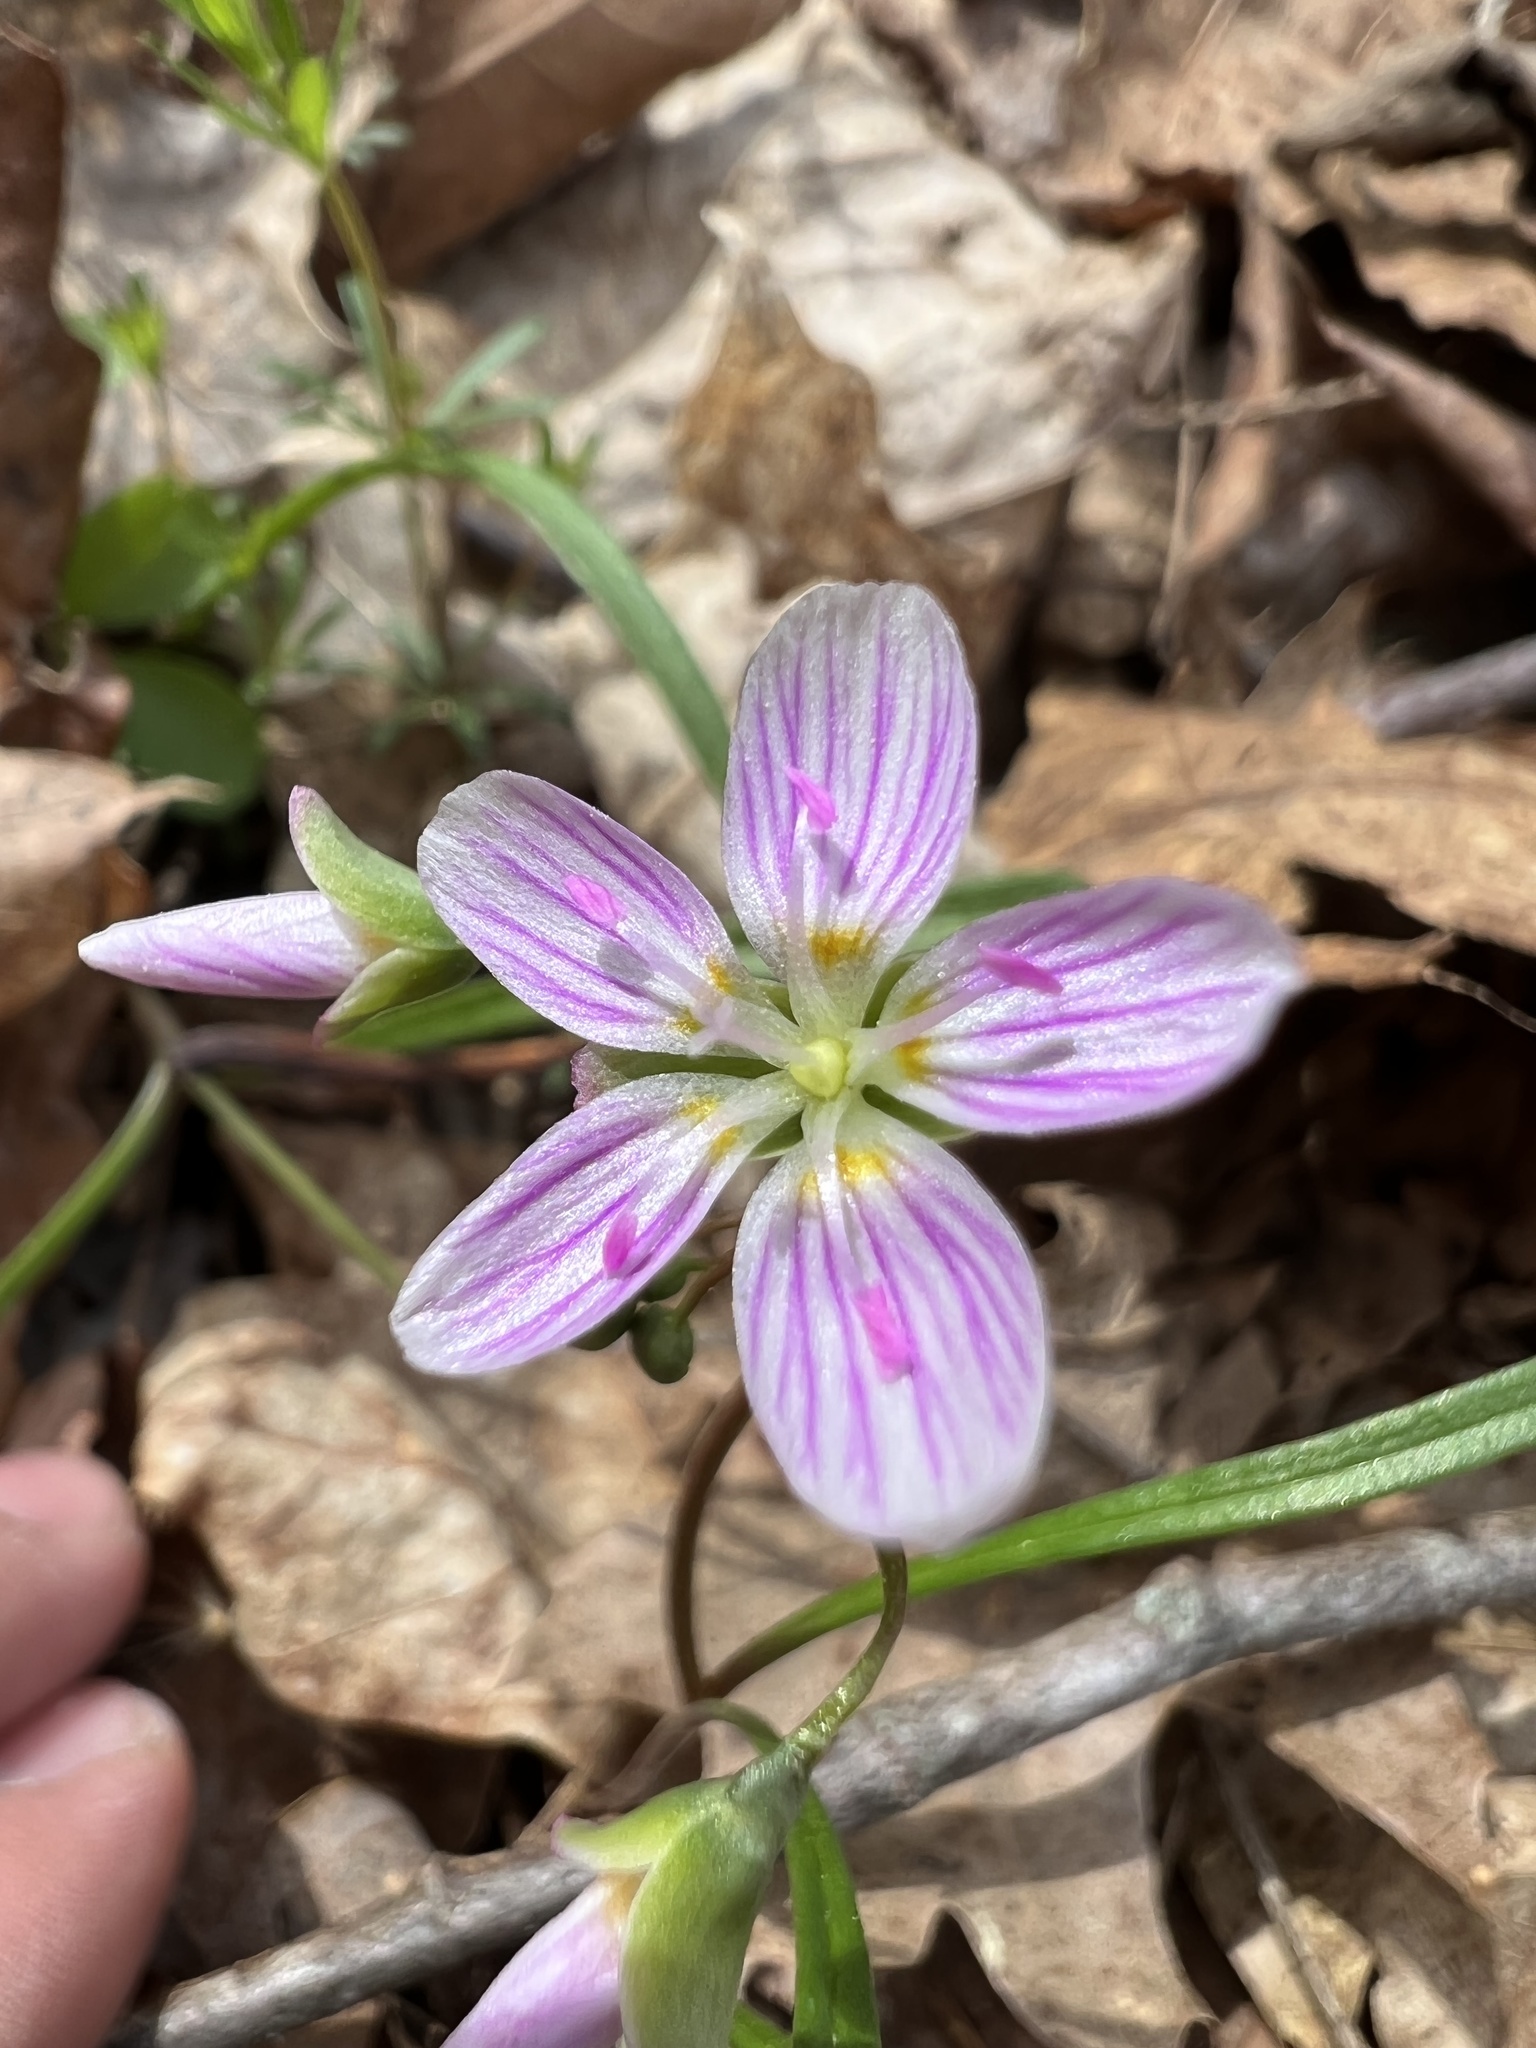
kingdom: Plantae
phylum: Tracheophyta
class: Magnoliopsida
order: Caryophyllales
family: Montiaceae
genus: Claytonia
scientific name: Claytonia virginica
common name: Virginia springbeauty
